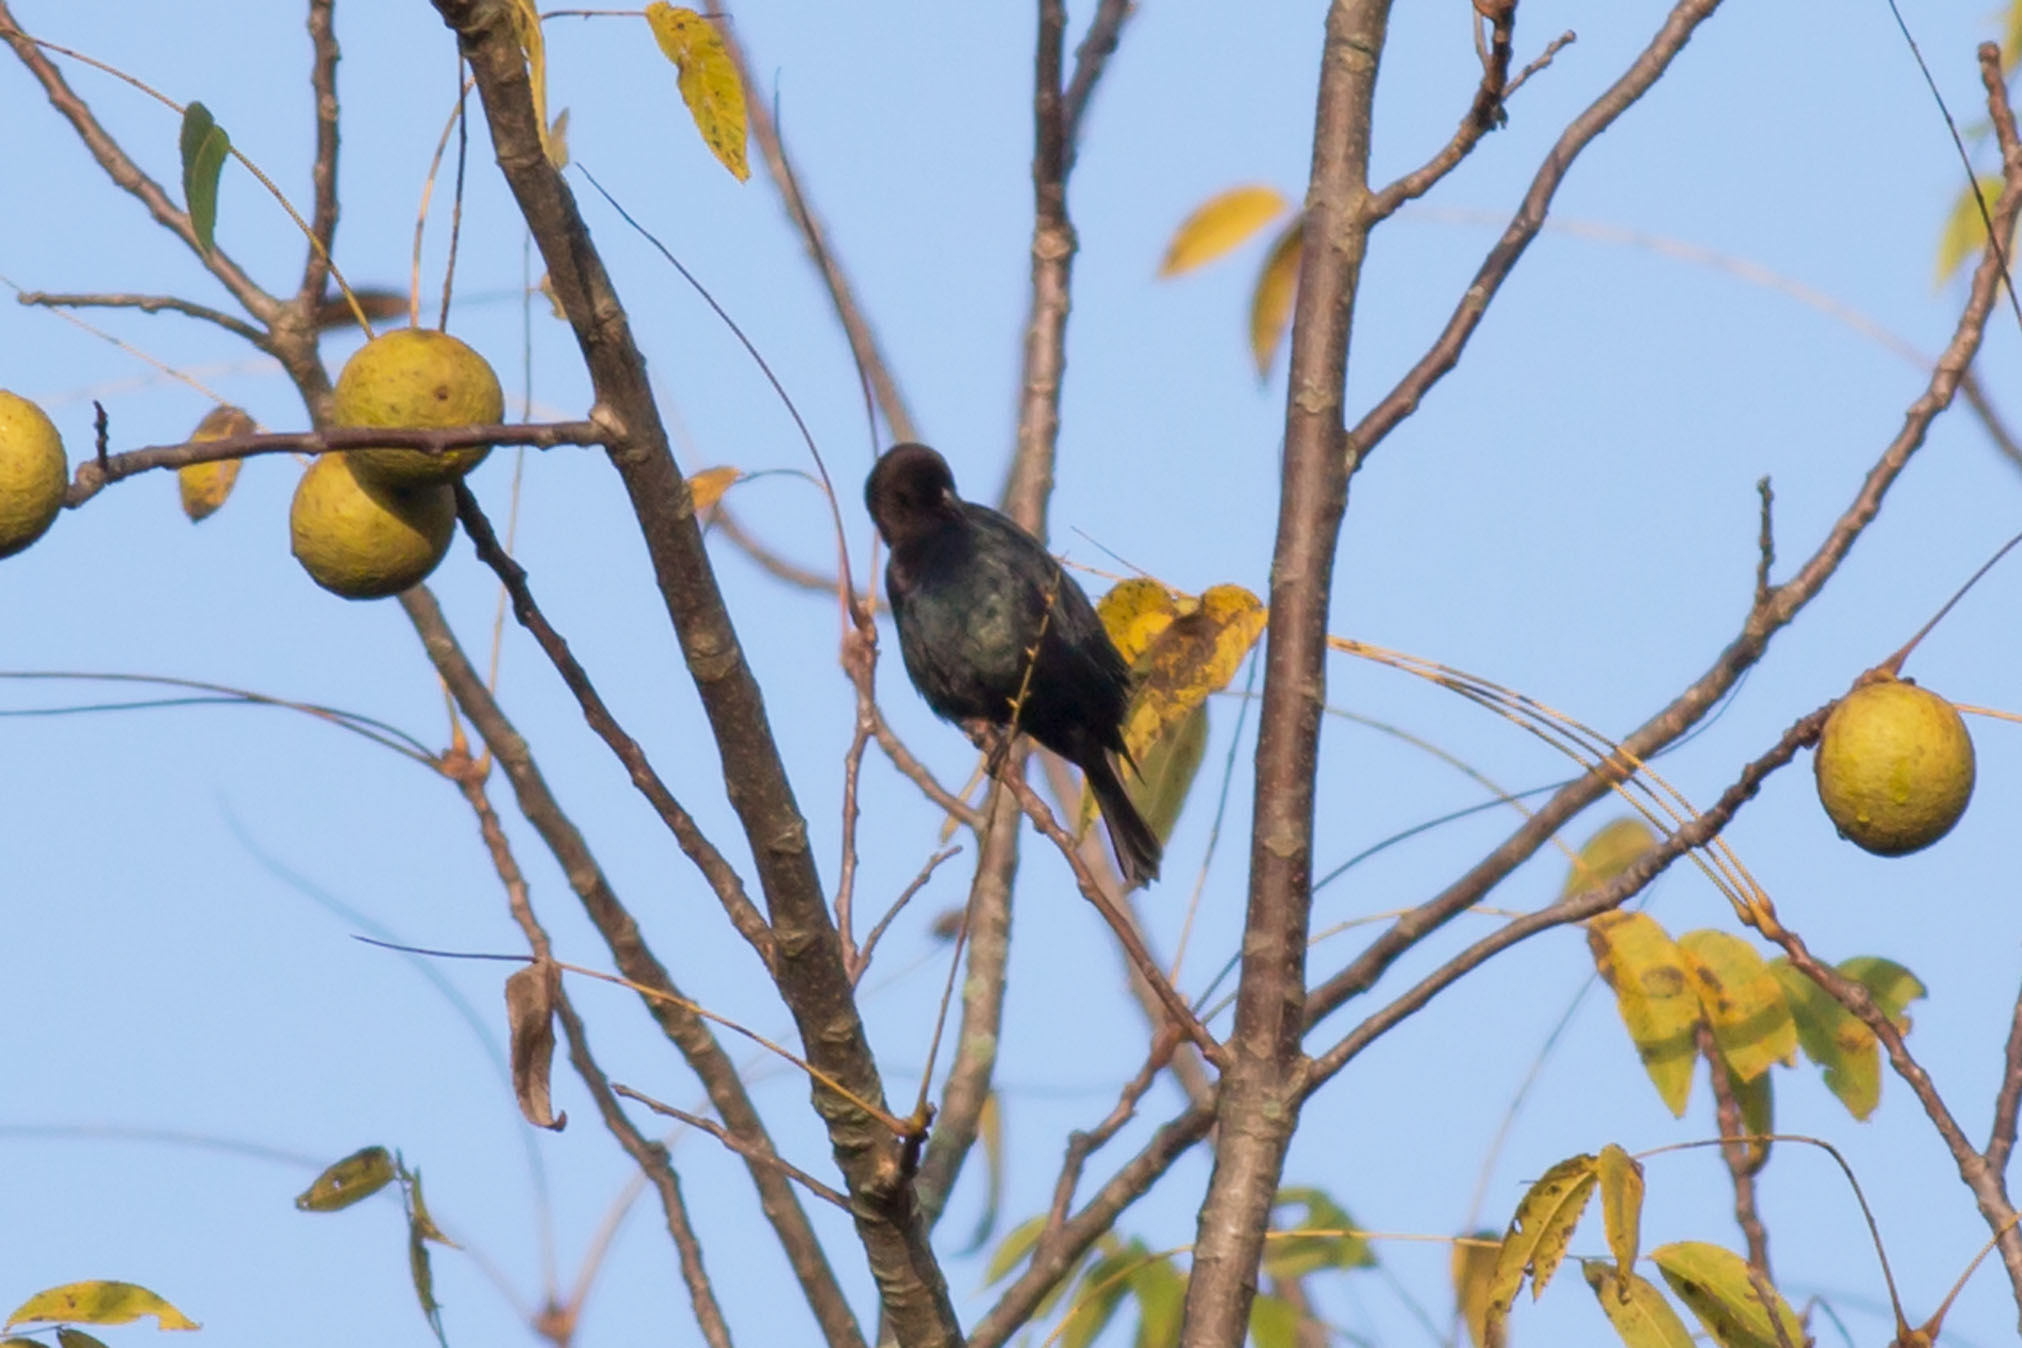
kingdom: Animalia
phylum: Chordata
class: Aves
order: Passeriformes
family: Icteridae
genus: Molothrus
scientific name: Molothrus ater
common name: Brown-headed cowbird
